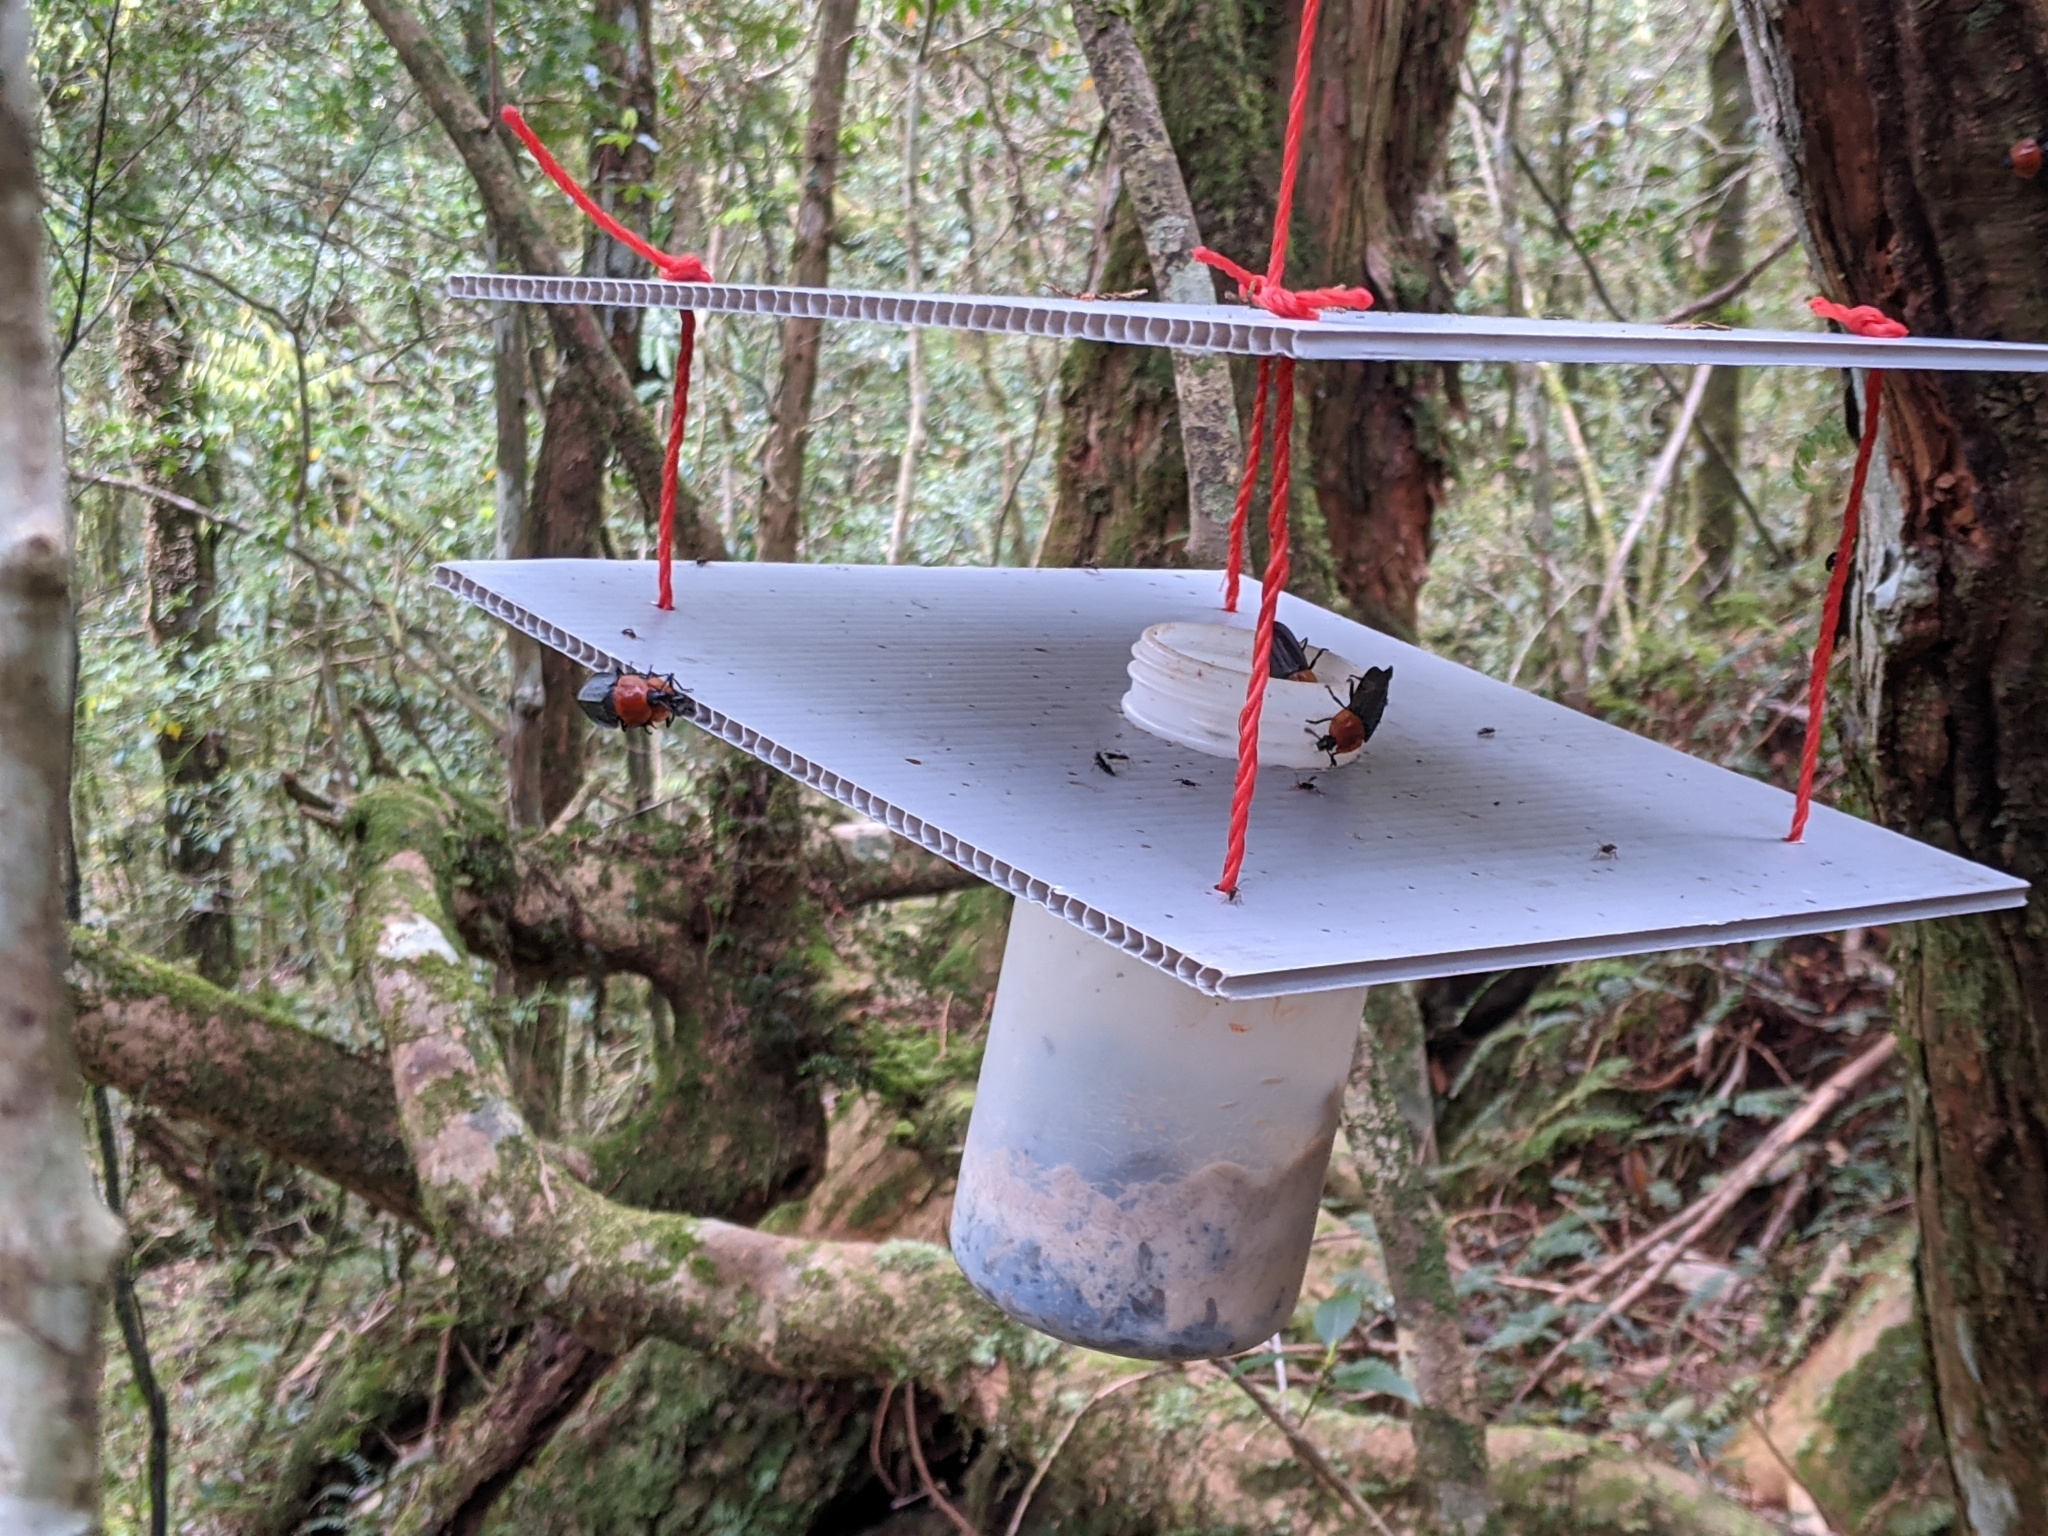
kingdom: Animalia
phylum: Arthropoda
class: Insecta
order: Coleoptera
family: Staphylinidae
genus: Necrophila
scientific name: Necrophila cyaneocephala
